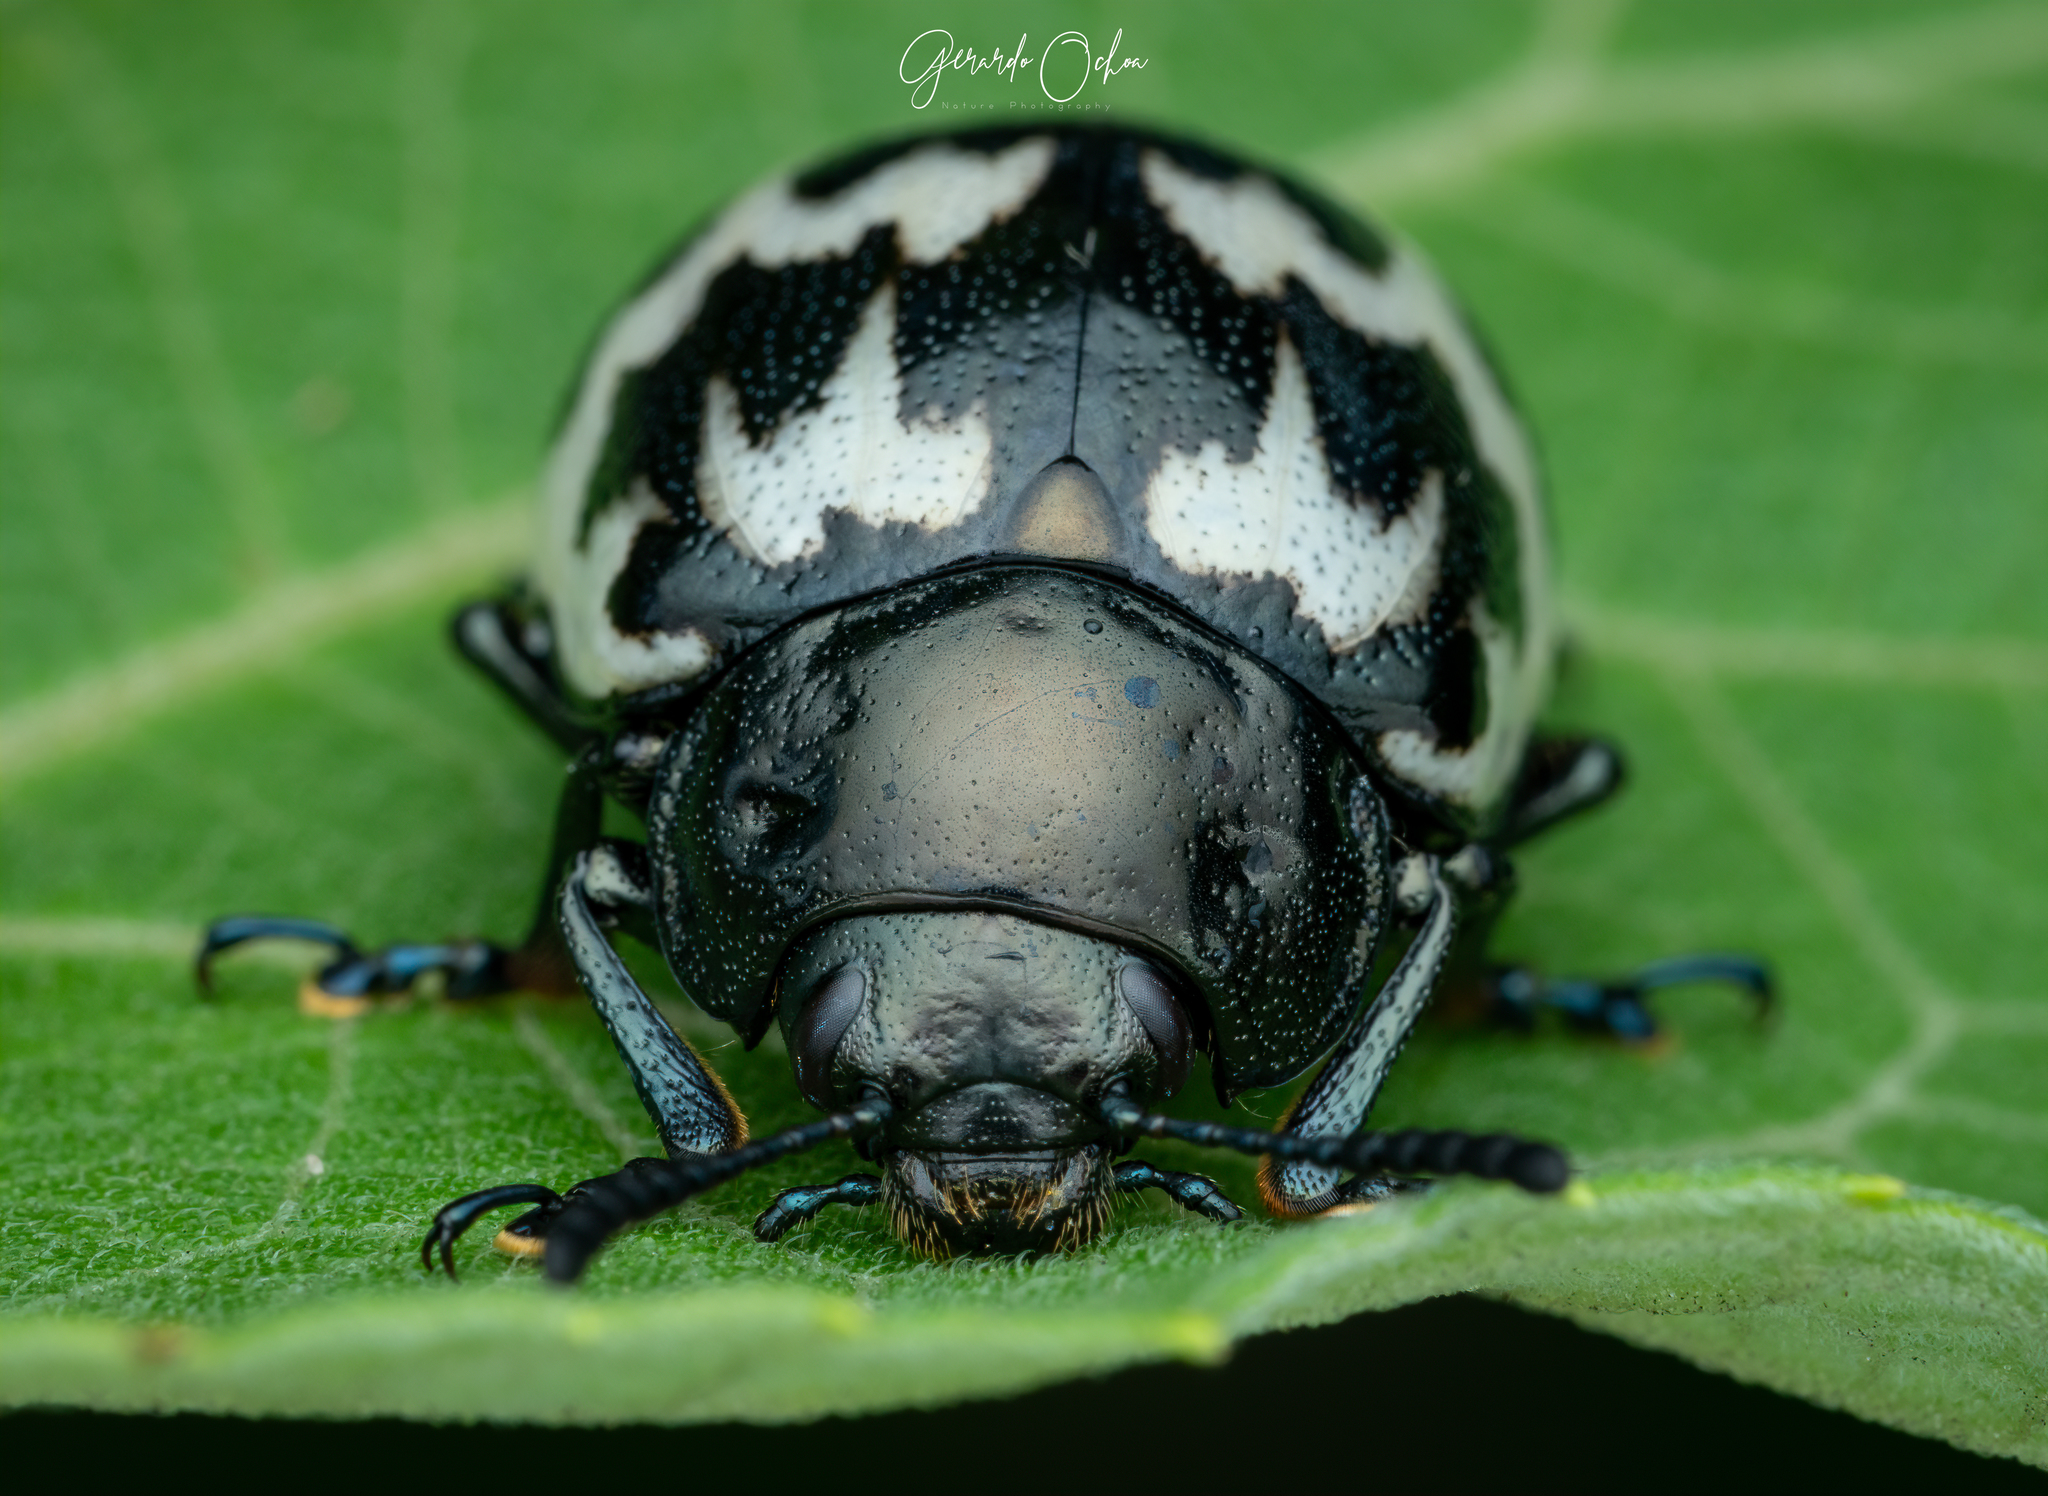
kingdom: Animalia
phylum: Arthropoda
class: Insecta
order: Coleoptera
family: Chrysomelidae
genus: Leptinotarsa
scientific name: Leptinotarsa
